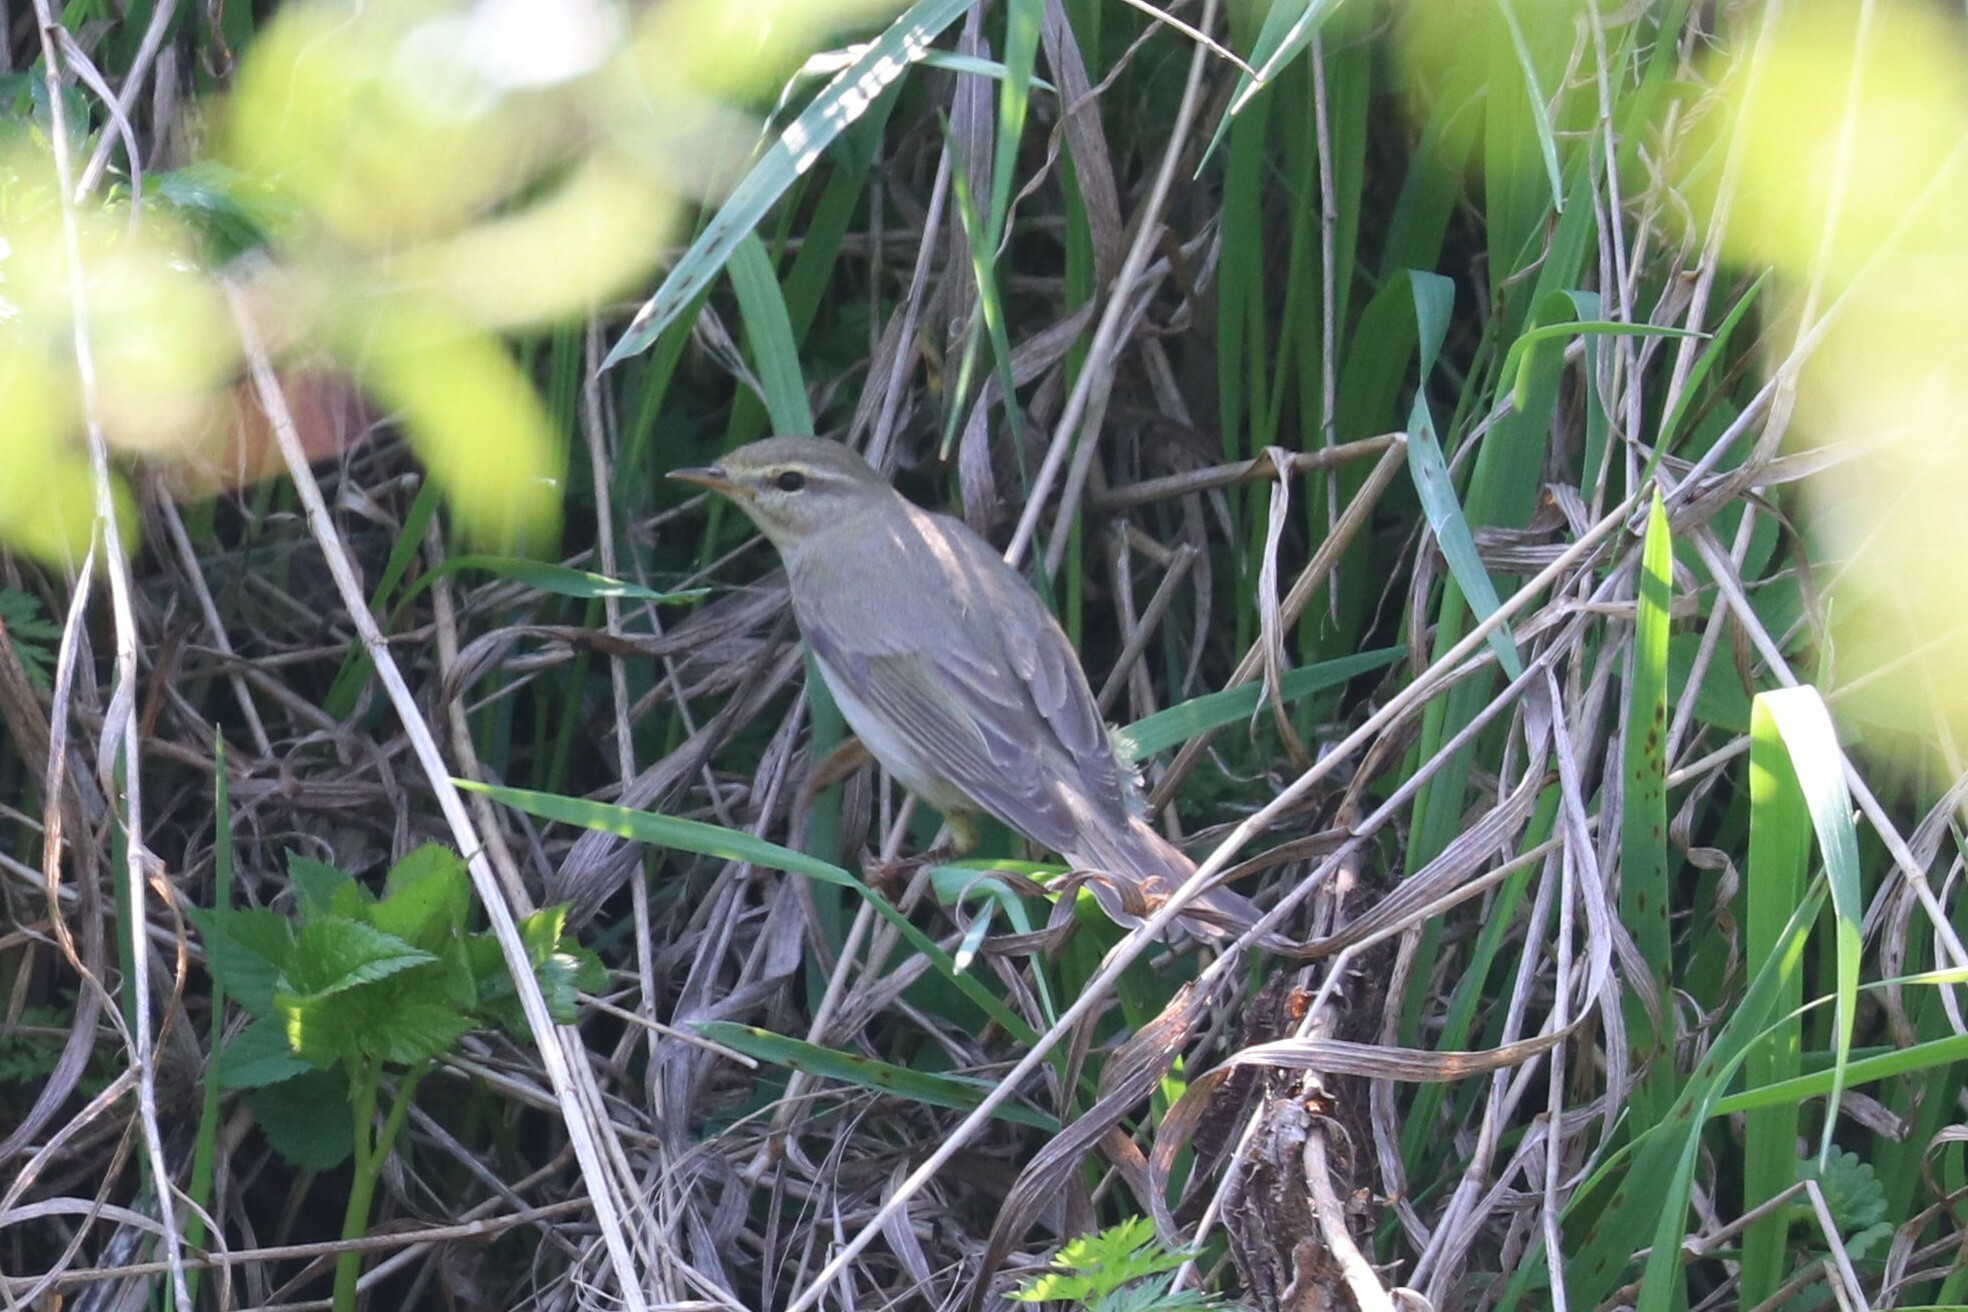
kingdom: Animalia
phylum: Chordata
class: Aves
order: Passeriformes
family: Phylloscopidae
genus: Phylloscopus
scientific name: Phylloscopus trochilus
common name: Willow warbler
